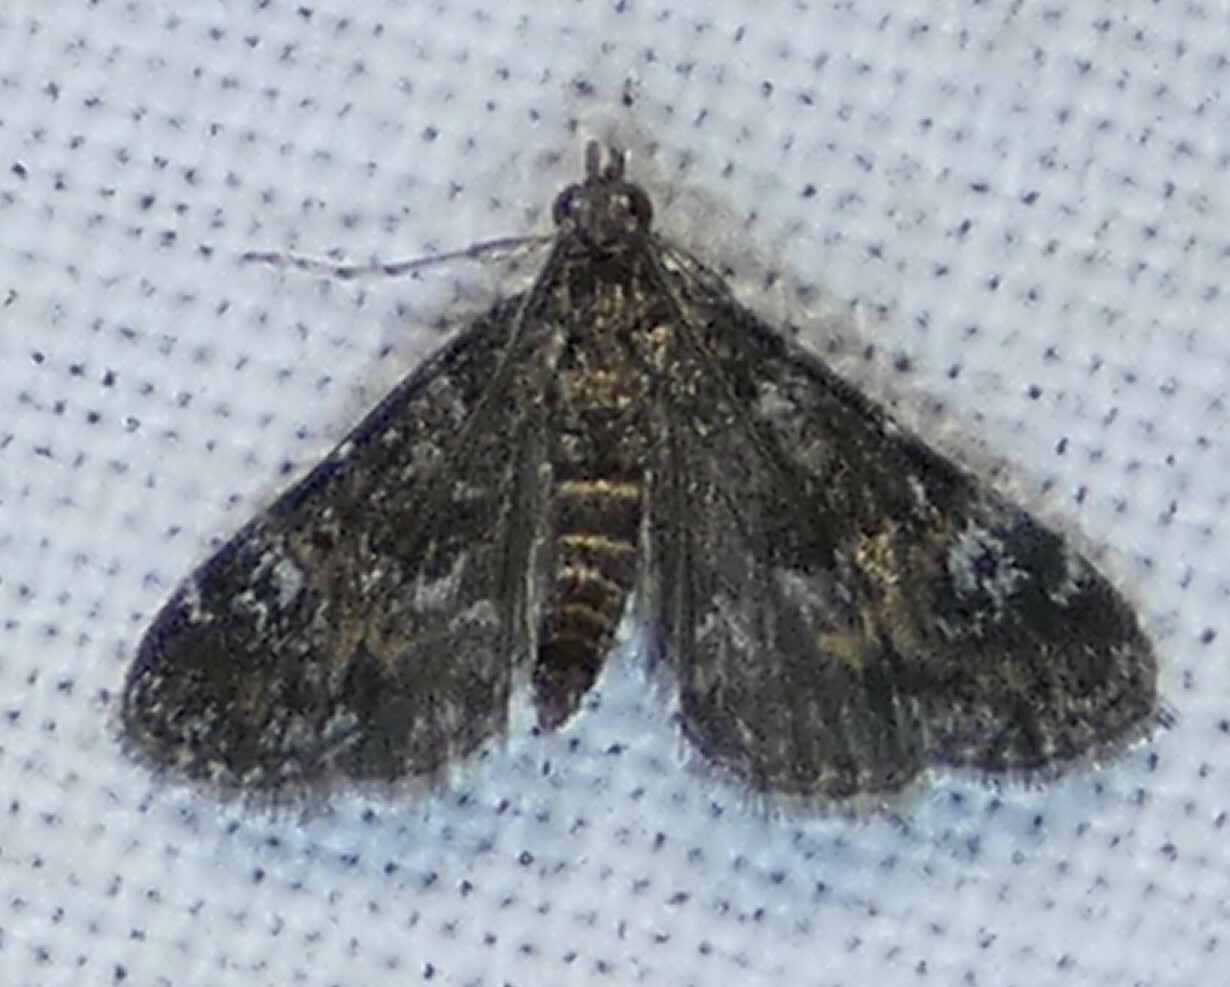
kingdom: Animalia
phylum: Arthropoda
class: Insecta
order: Lepidoptera
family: Crambidae
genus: Elophila
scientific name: Elophila obliteralis
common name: Waterlily leafcutter moth
